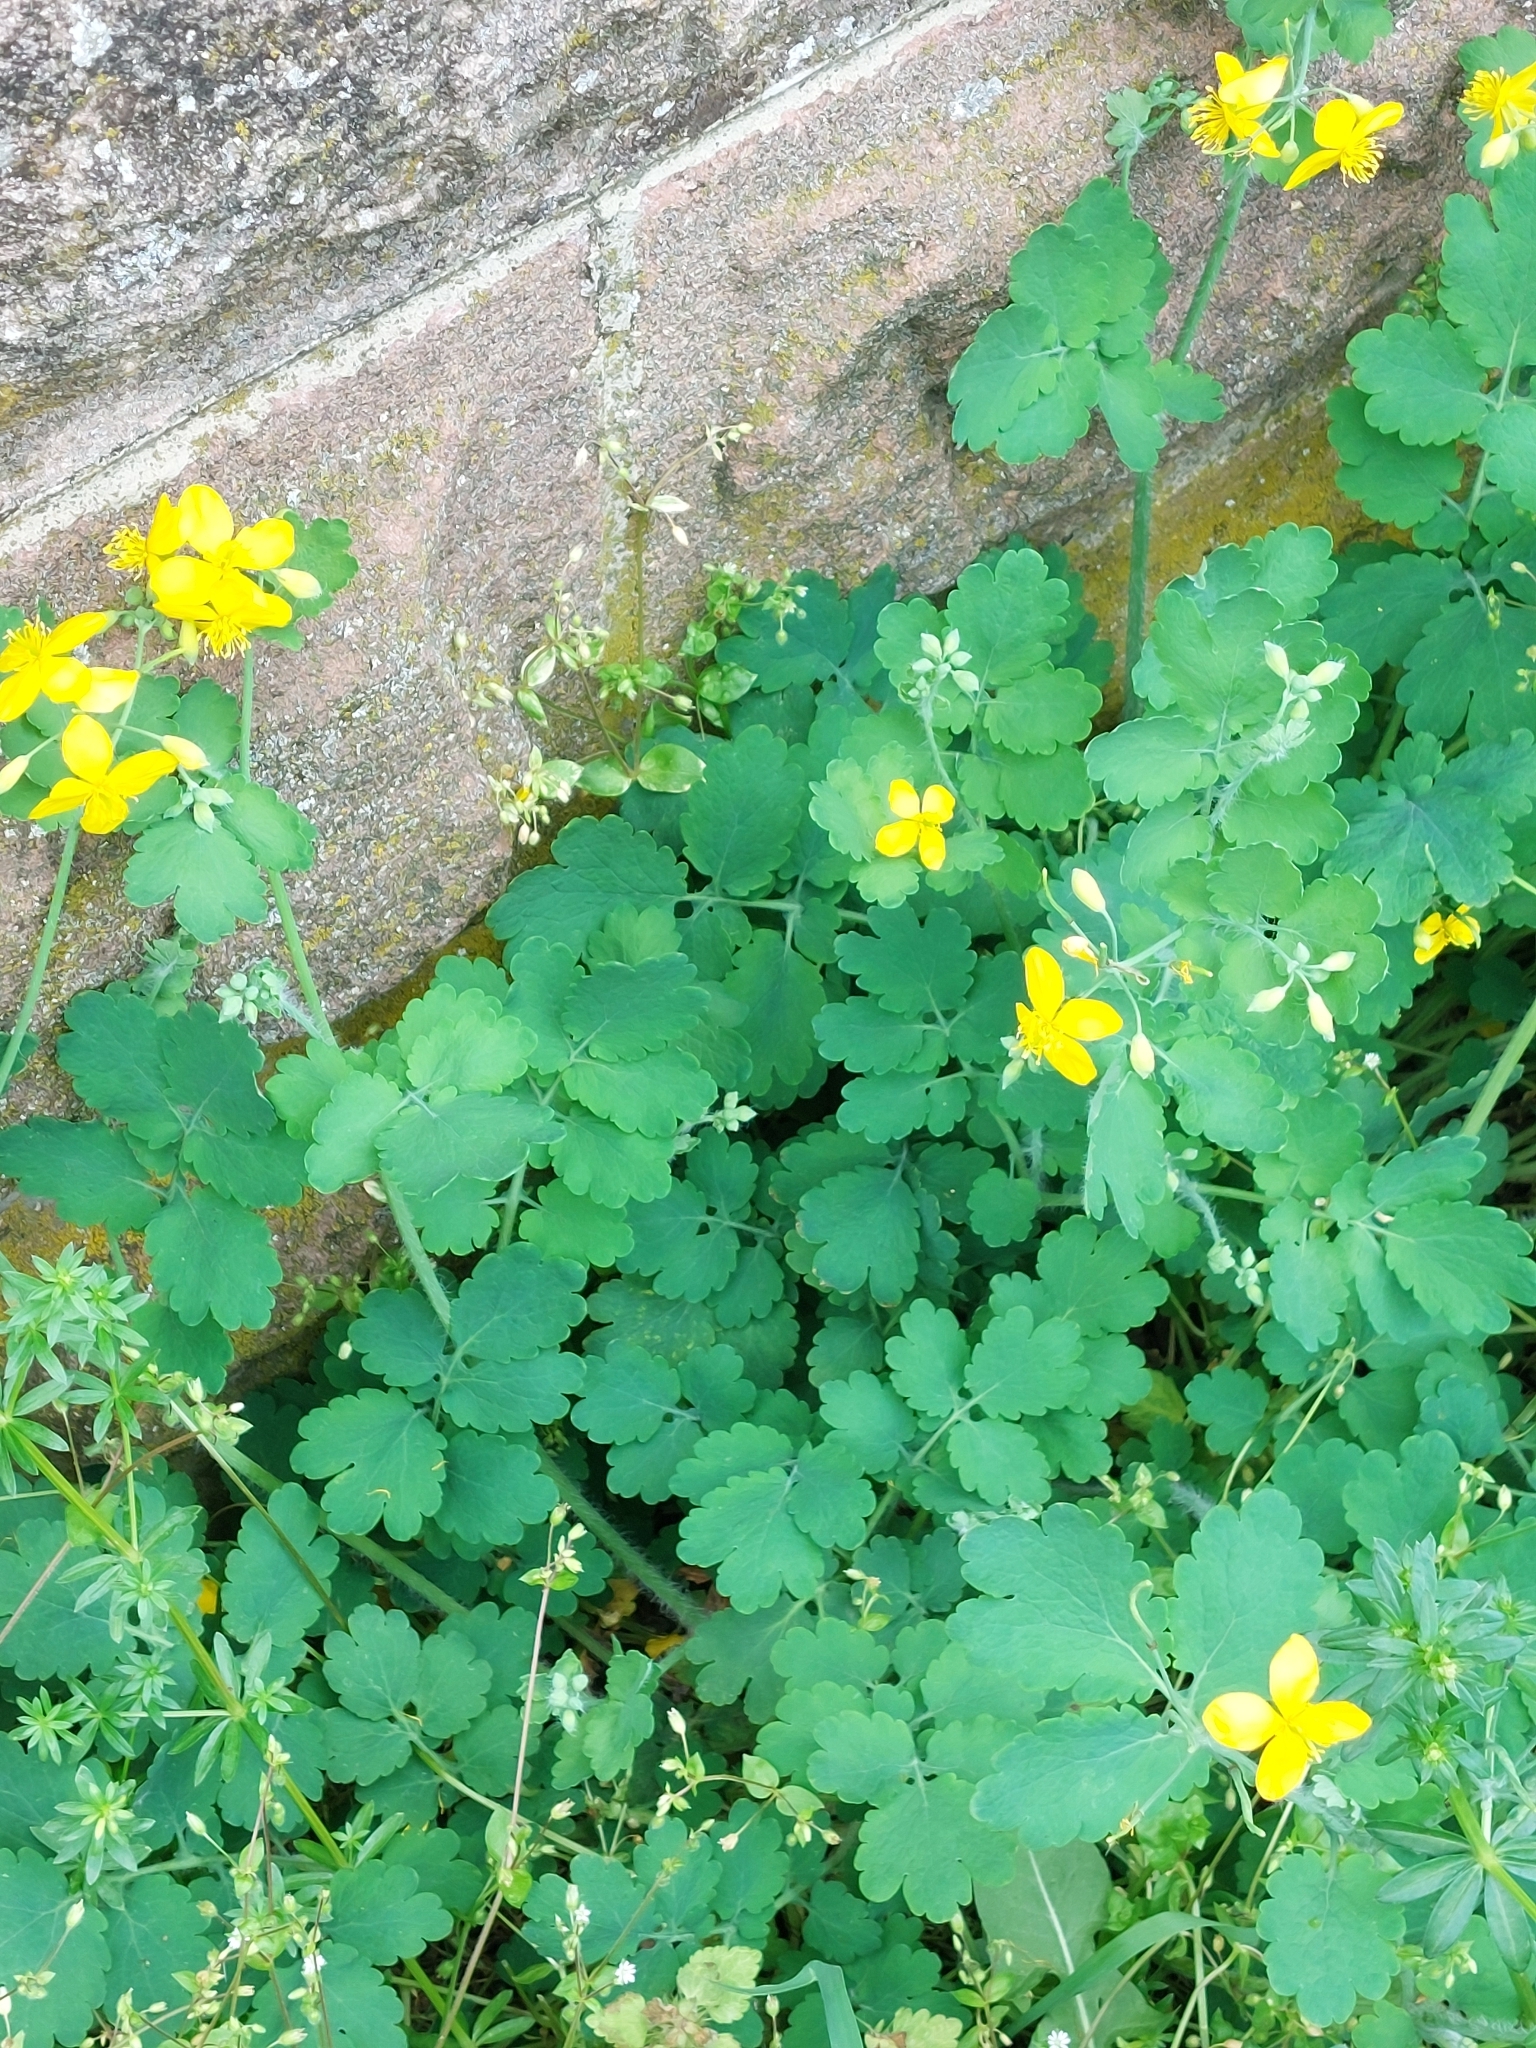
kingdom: Plantae
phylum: Tracheophyta
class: Magnoliopsida
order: Ranunculales
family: Papaveraceae
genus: Chelidonium
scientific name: Chelidonium majus
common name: Greater celandine
